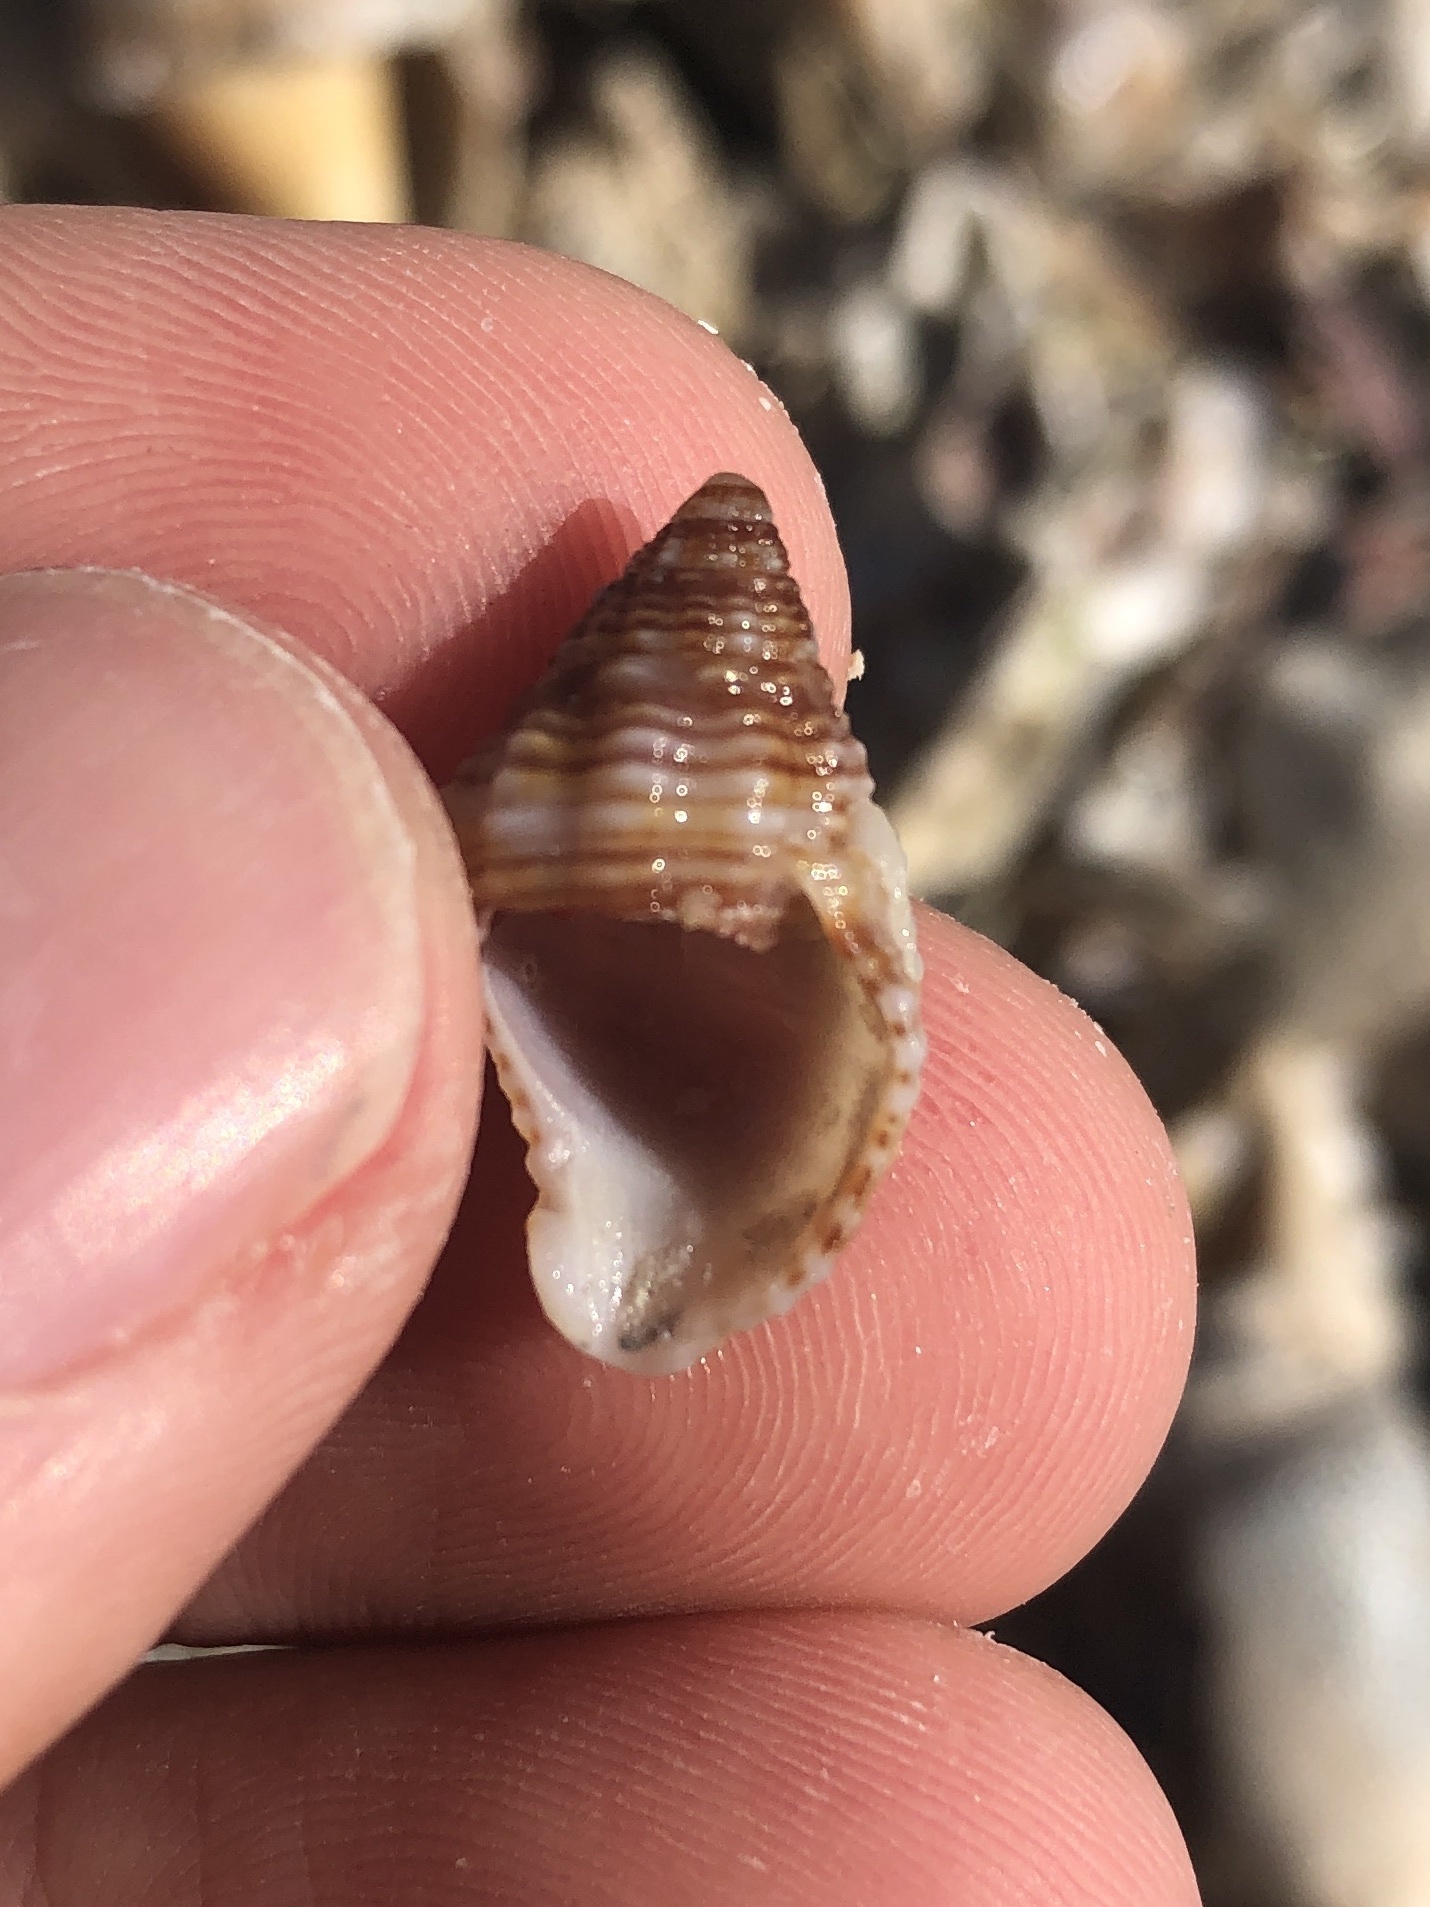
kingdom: Animalia
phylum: Mollusca
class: Gastropoda
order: Neogastropoda
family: Pisaniidae
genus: Gemophos
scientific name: Gemophos tinctus
